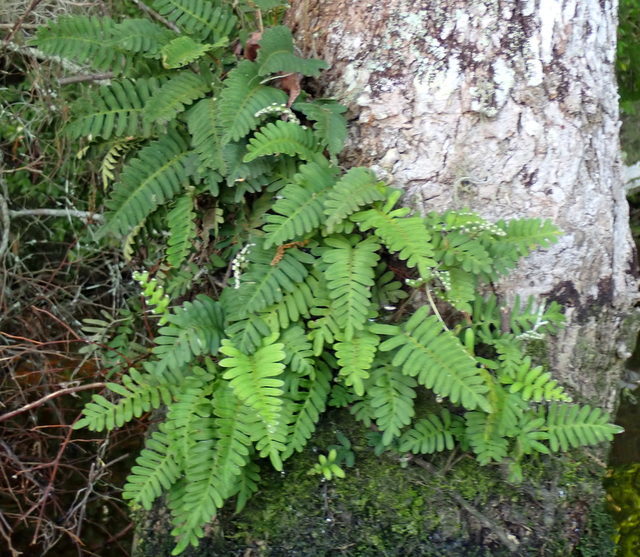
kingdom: Plantae
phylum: Tracheophyta
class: Polypodiopsida
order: Polypodiales
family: Polypodiaceae
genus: Pleopeltis
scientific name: Pleopeltis michauxiana
